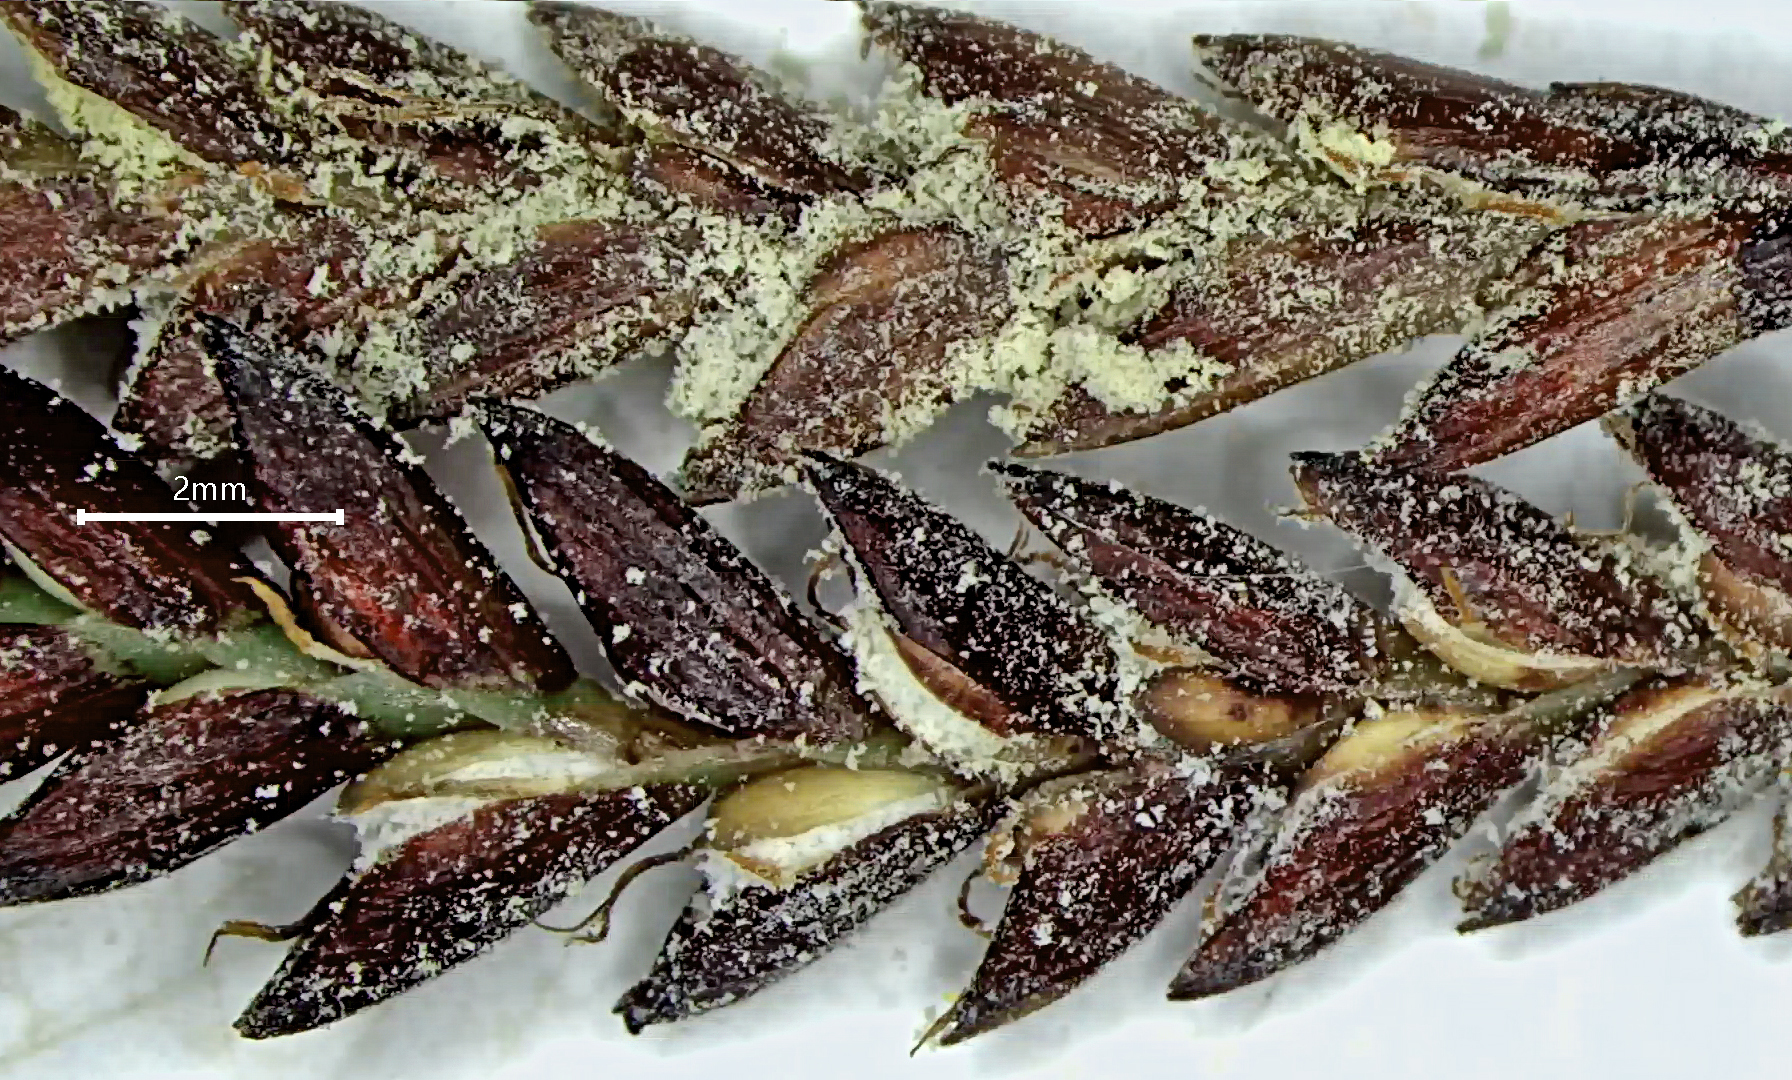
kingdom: Fungi
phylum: Basidiomycota
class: Microbotryomycetes
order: Microbotryales
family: Microbotryaceae
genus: Bauerago
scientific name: Bauerago gardneri
